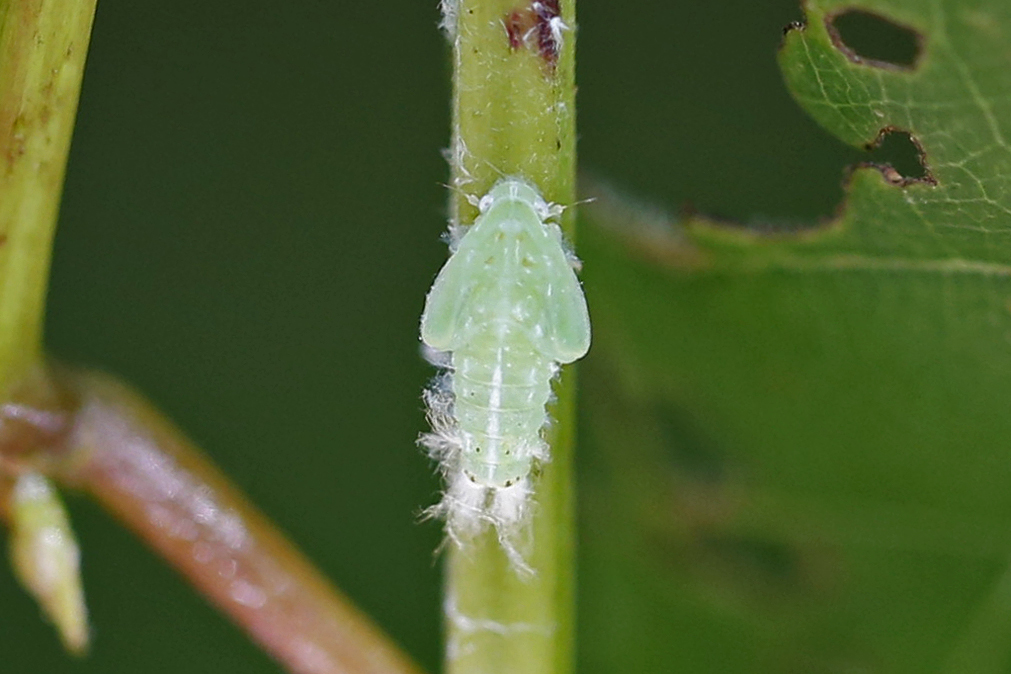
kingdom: Animalia
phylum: Arthropoda
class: Insecta
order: Hemiptera
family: Flatidae
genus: Ormenoides
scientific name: Ormenoides venusta
